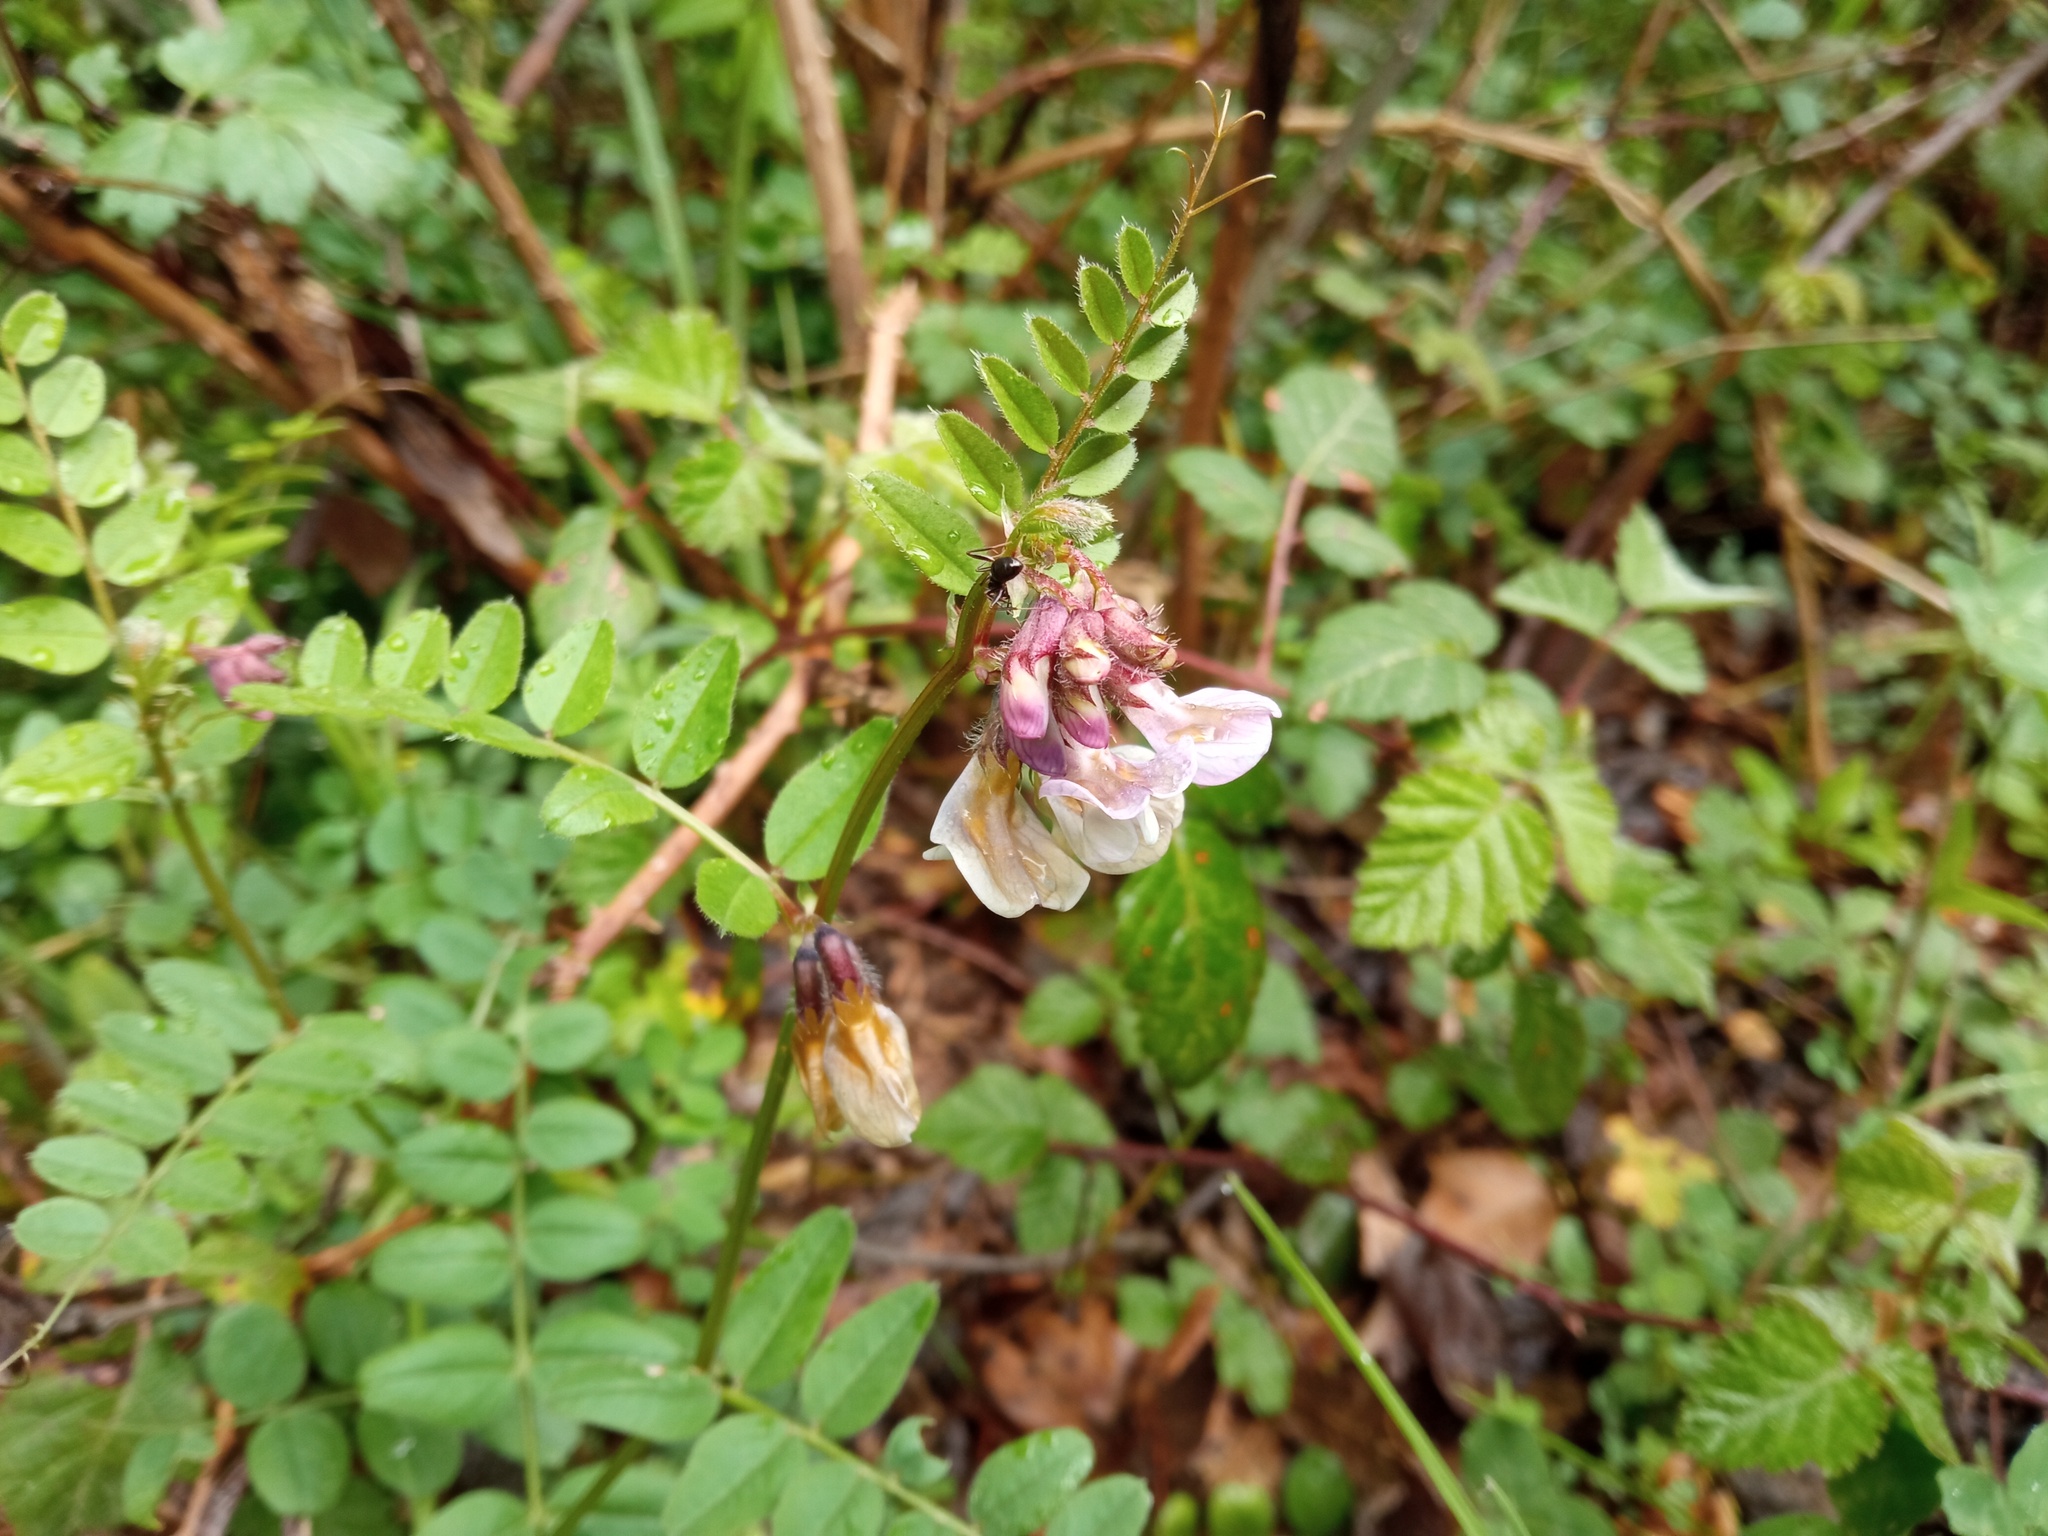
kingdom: Plantae
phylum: Tracheophyta
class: Magnoliopsida
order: Fabales
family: Fabaceae
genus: Vicia
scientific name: Vicia sepium
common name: Bush vetch
